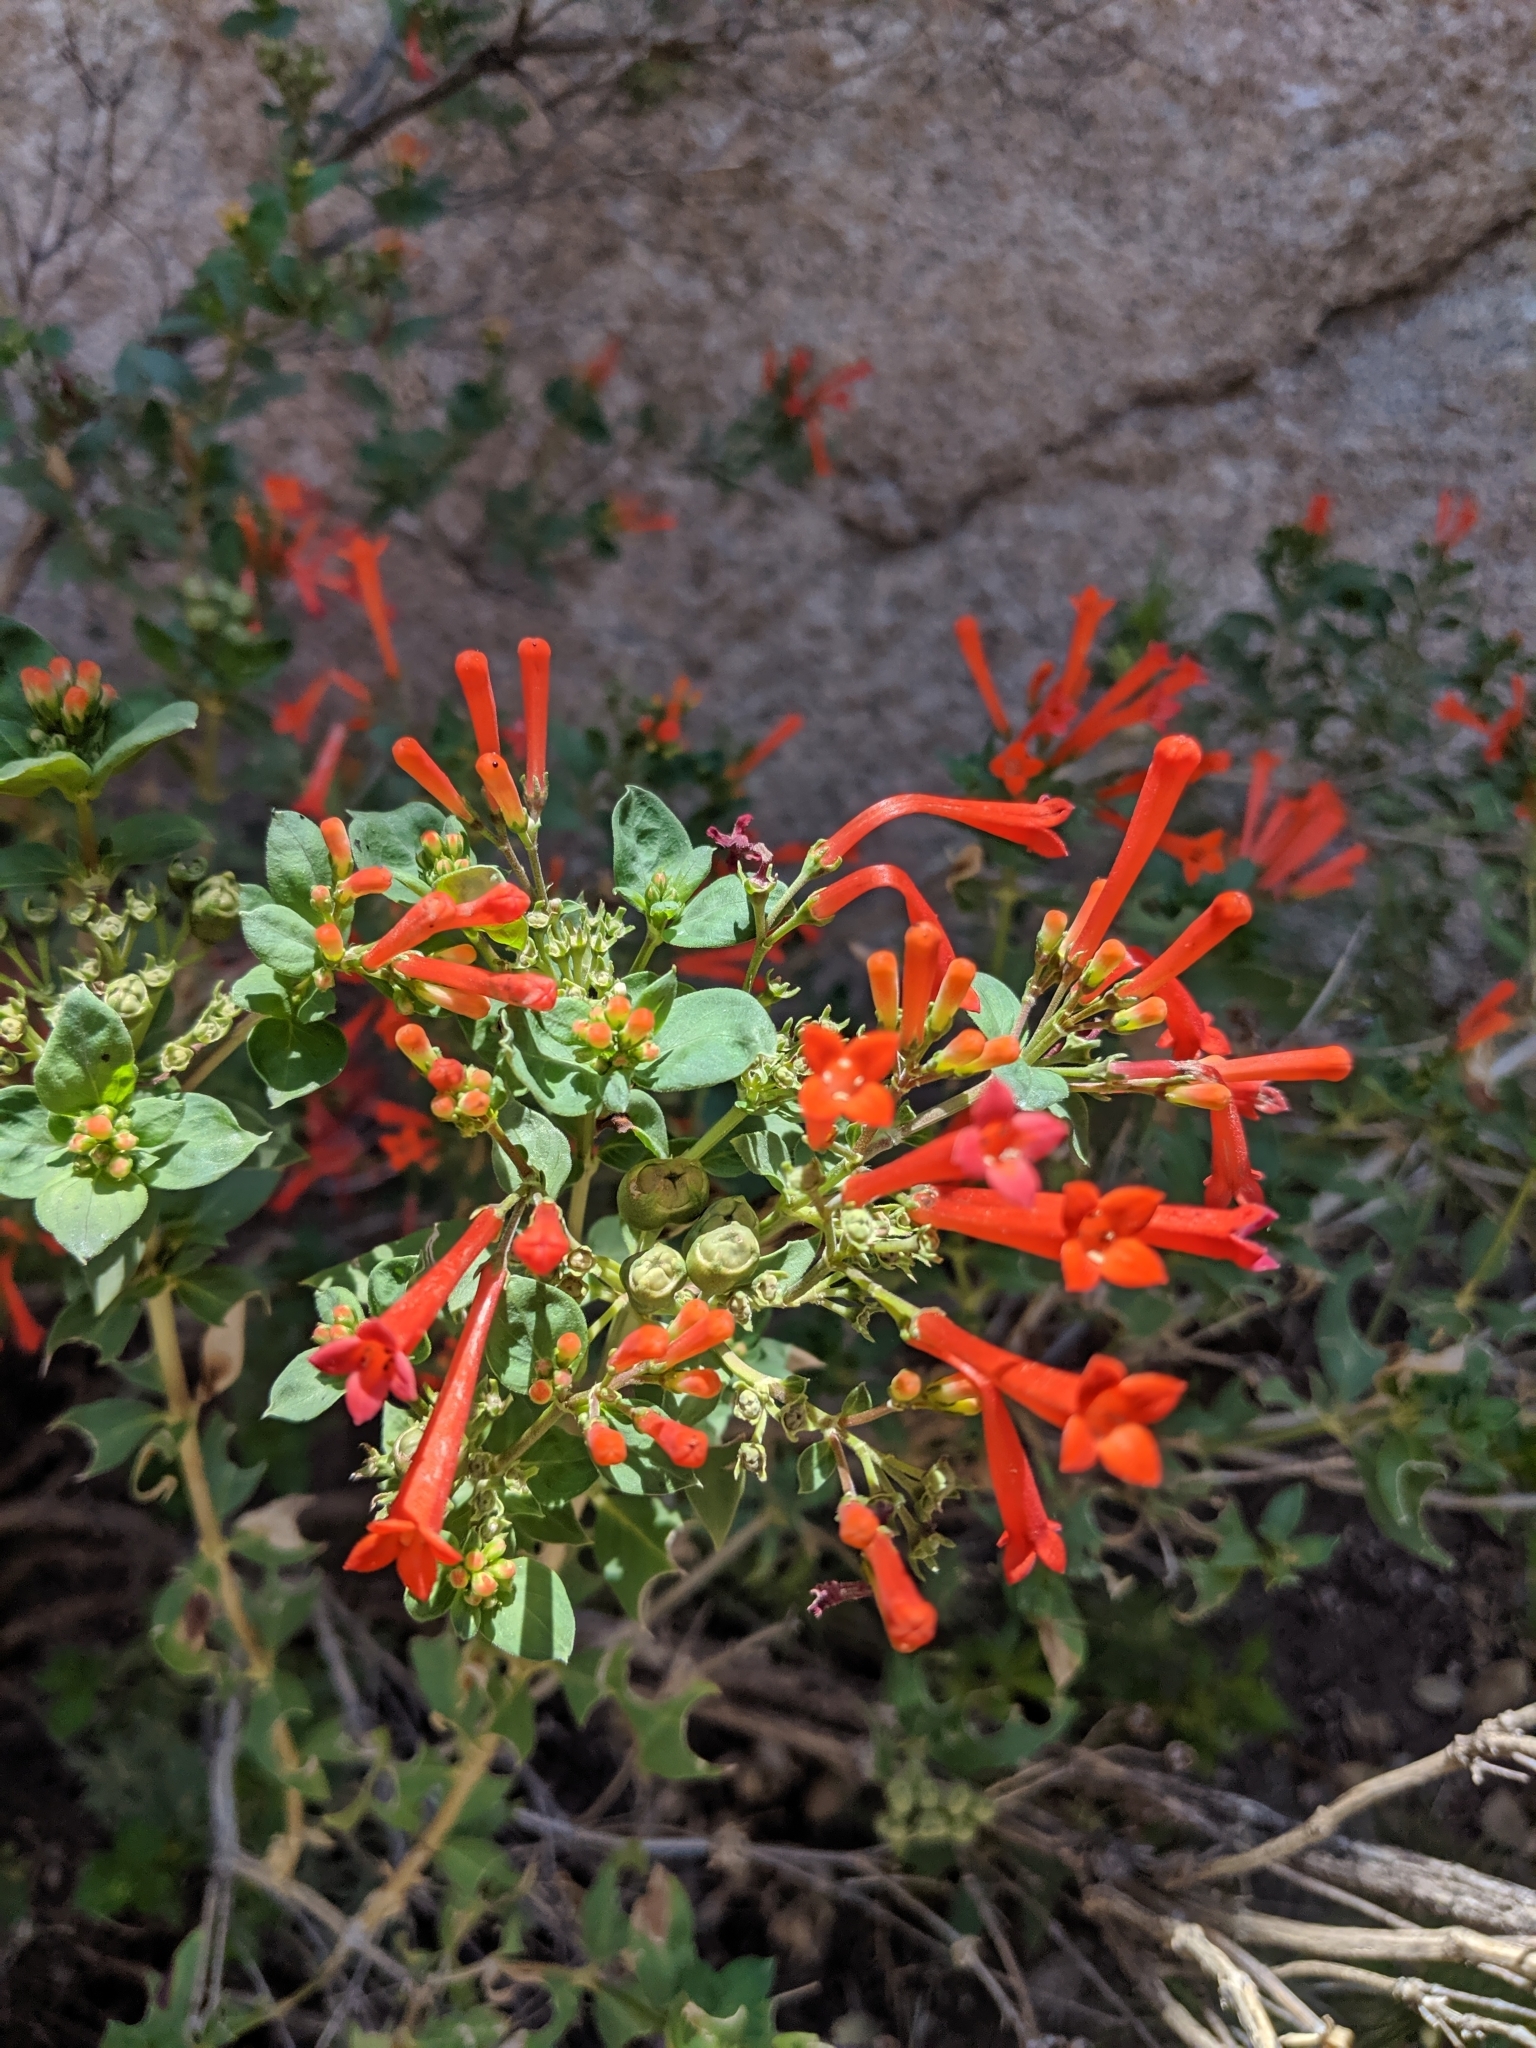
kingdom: Plantae
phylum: Tracheophyta
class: Magnoliopsida
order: Gentianales
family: Rubiaceae
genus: Bouvardia
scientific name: Bouvardia ternifolia
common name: Scarlet bouvardia
